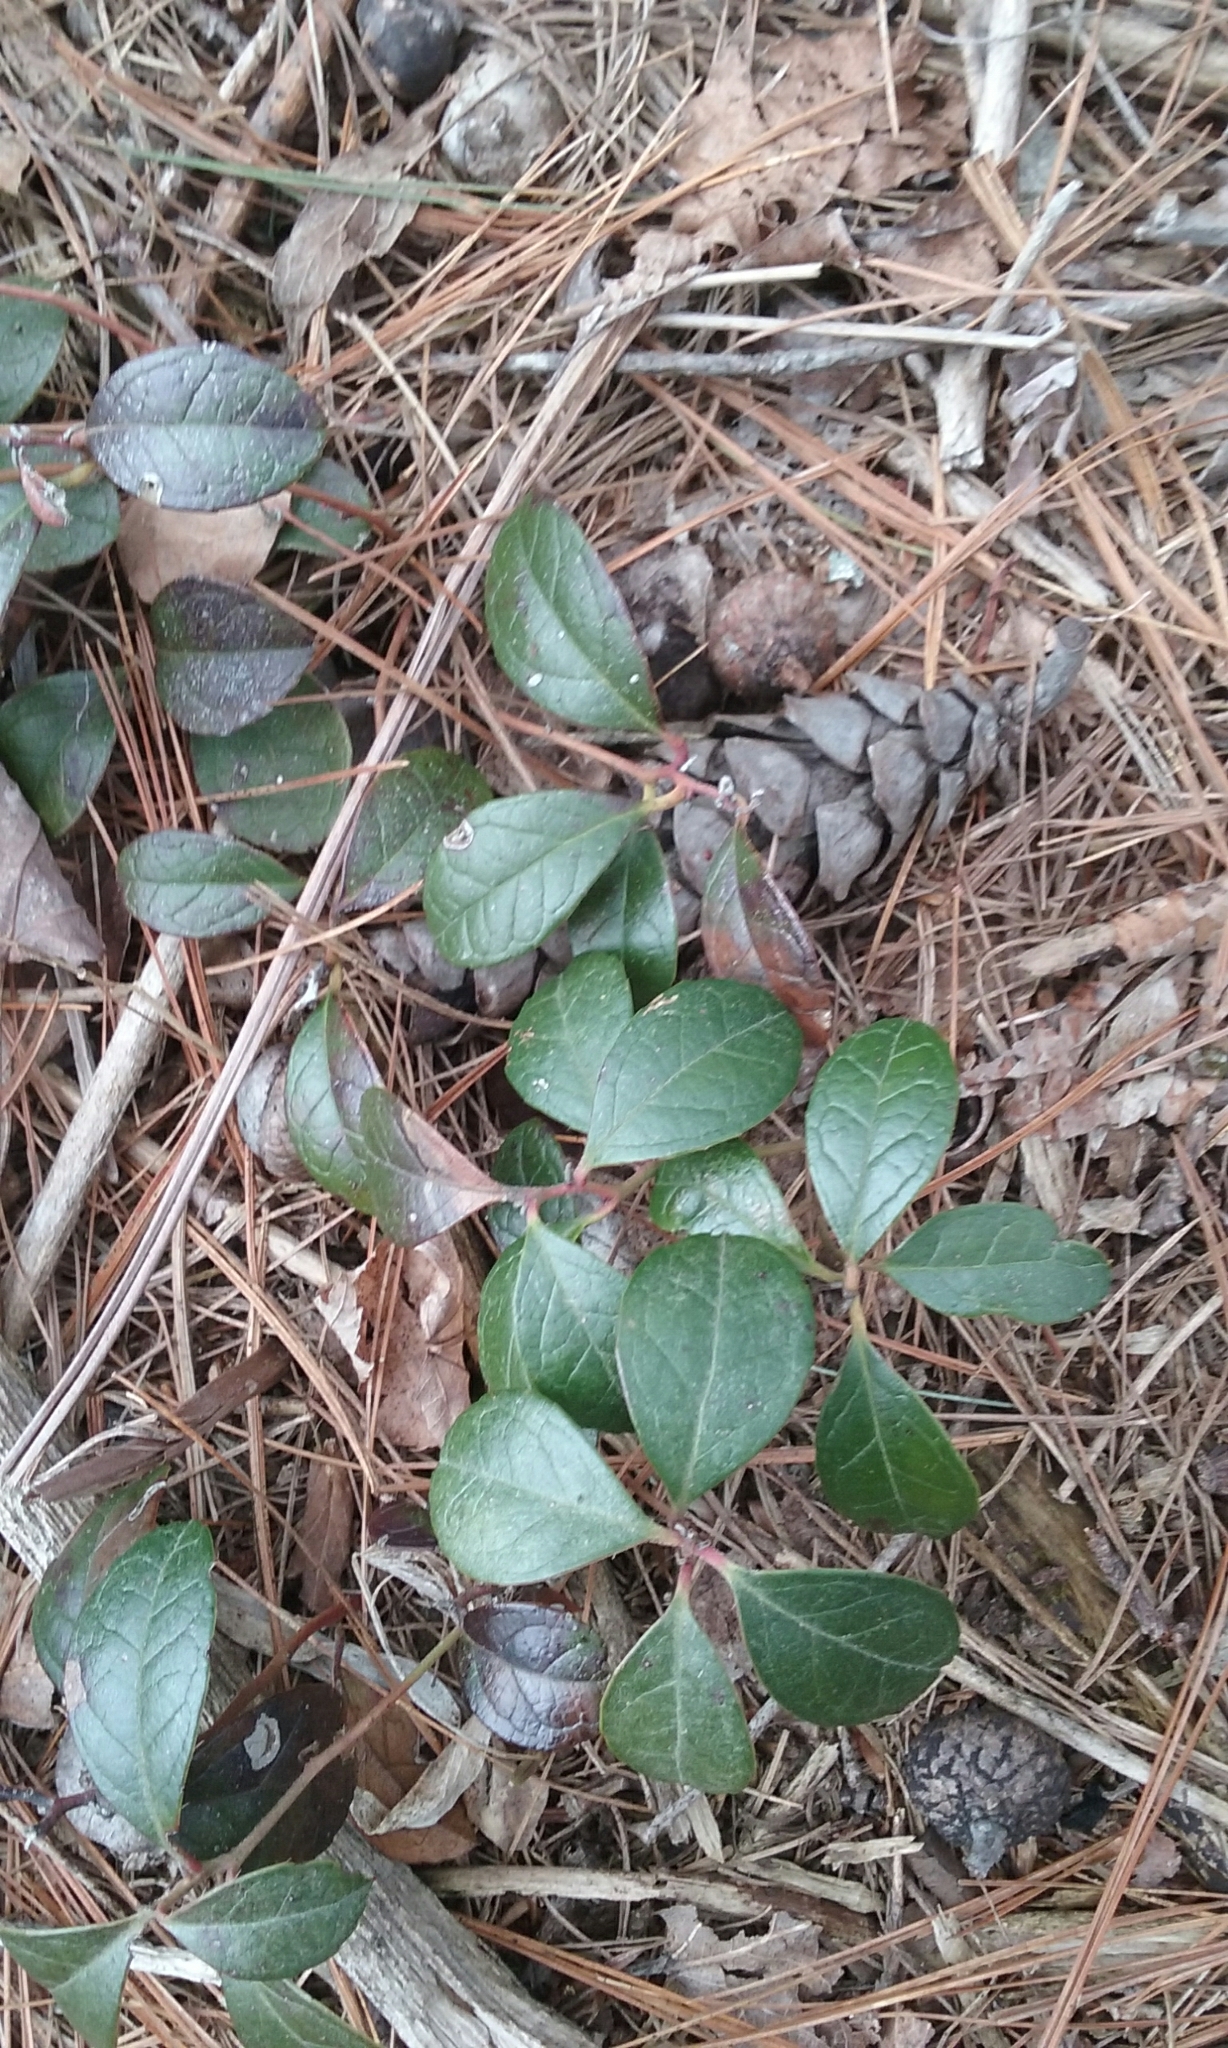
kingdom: Plantae
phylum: Tracheophyta
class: Magnoliopsida
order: Ericales
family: Ericaceae
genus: Gaultheria
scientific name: Gaultheria procumbens
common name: Checkerberry
